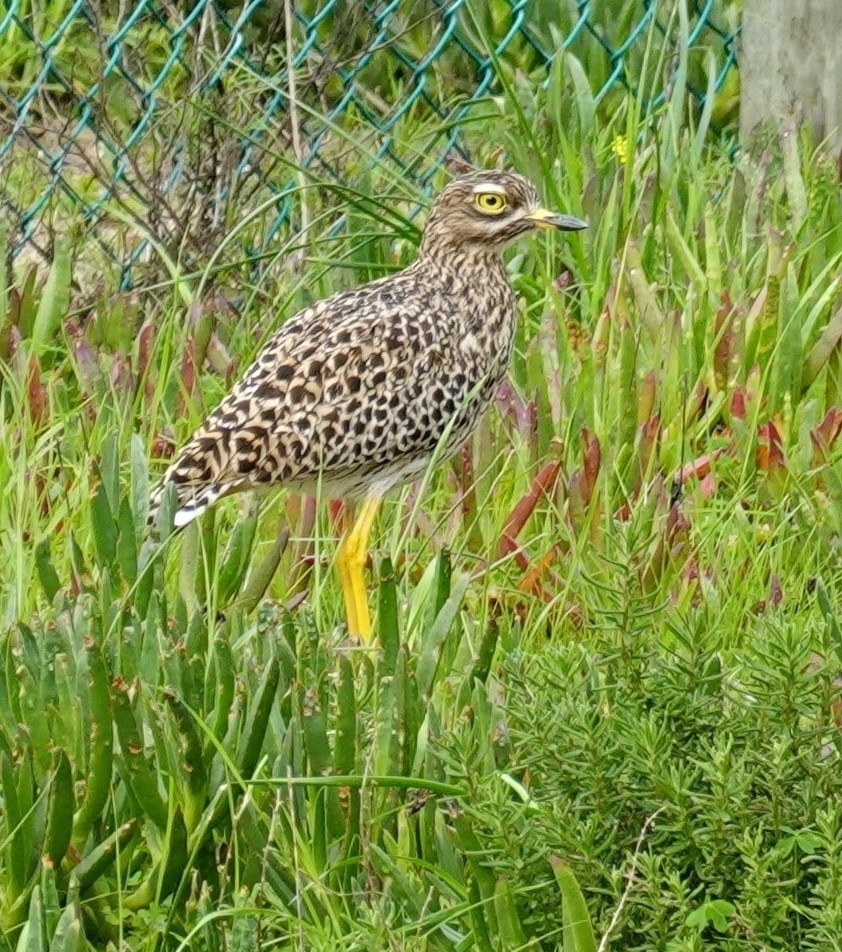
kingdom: Animalia
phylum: Chordata
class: Aves
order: Charadriiformes
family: Burhinidae
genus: Burhinus
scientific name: Burhinus capensis
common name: Spotted thick-knee
